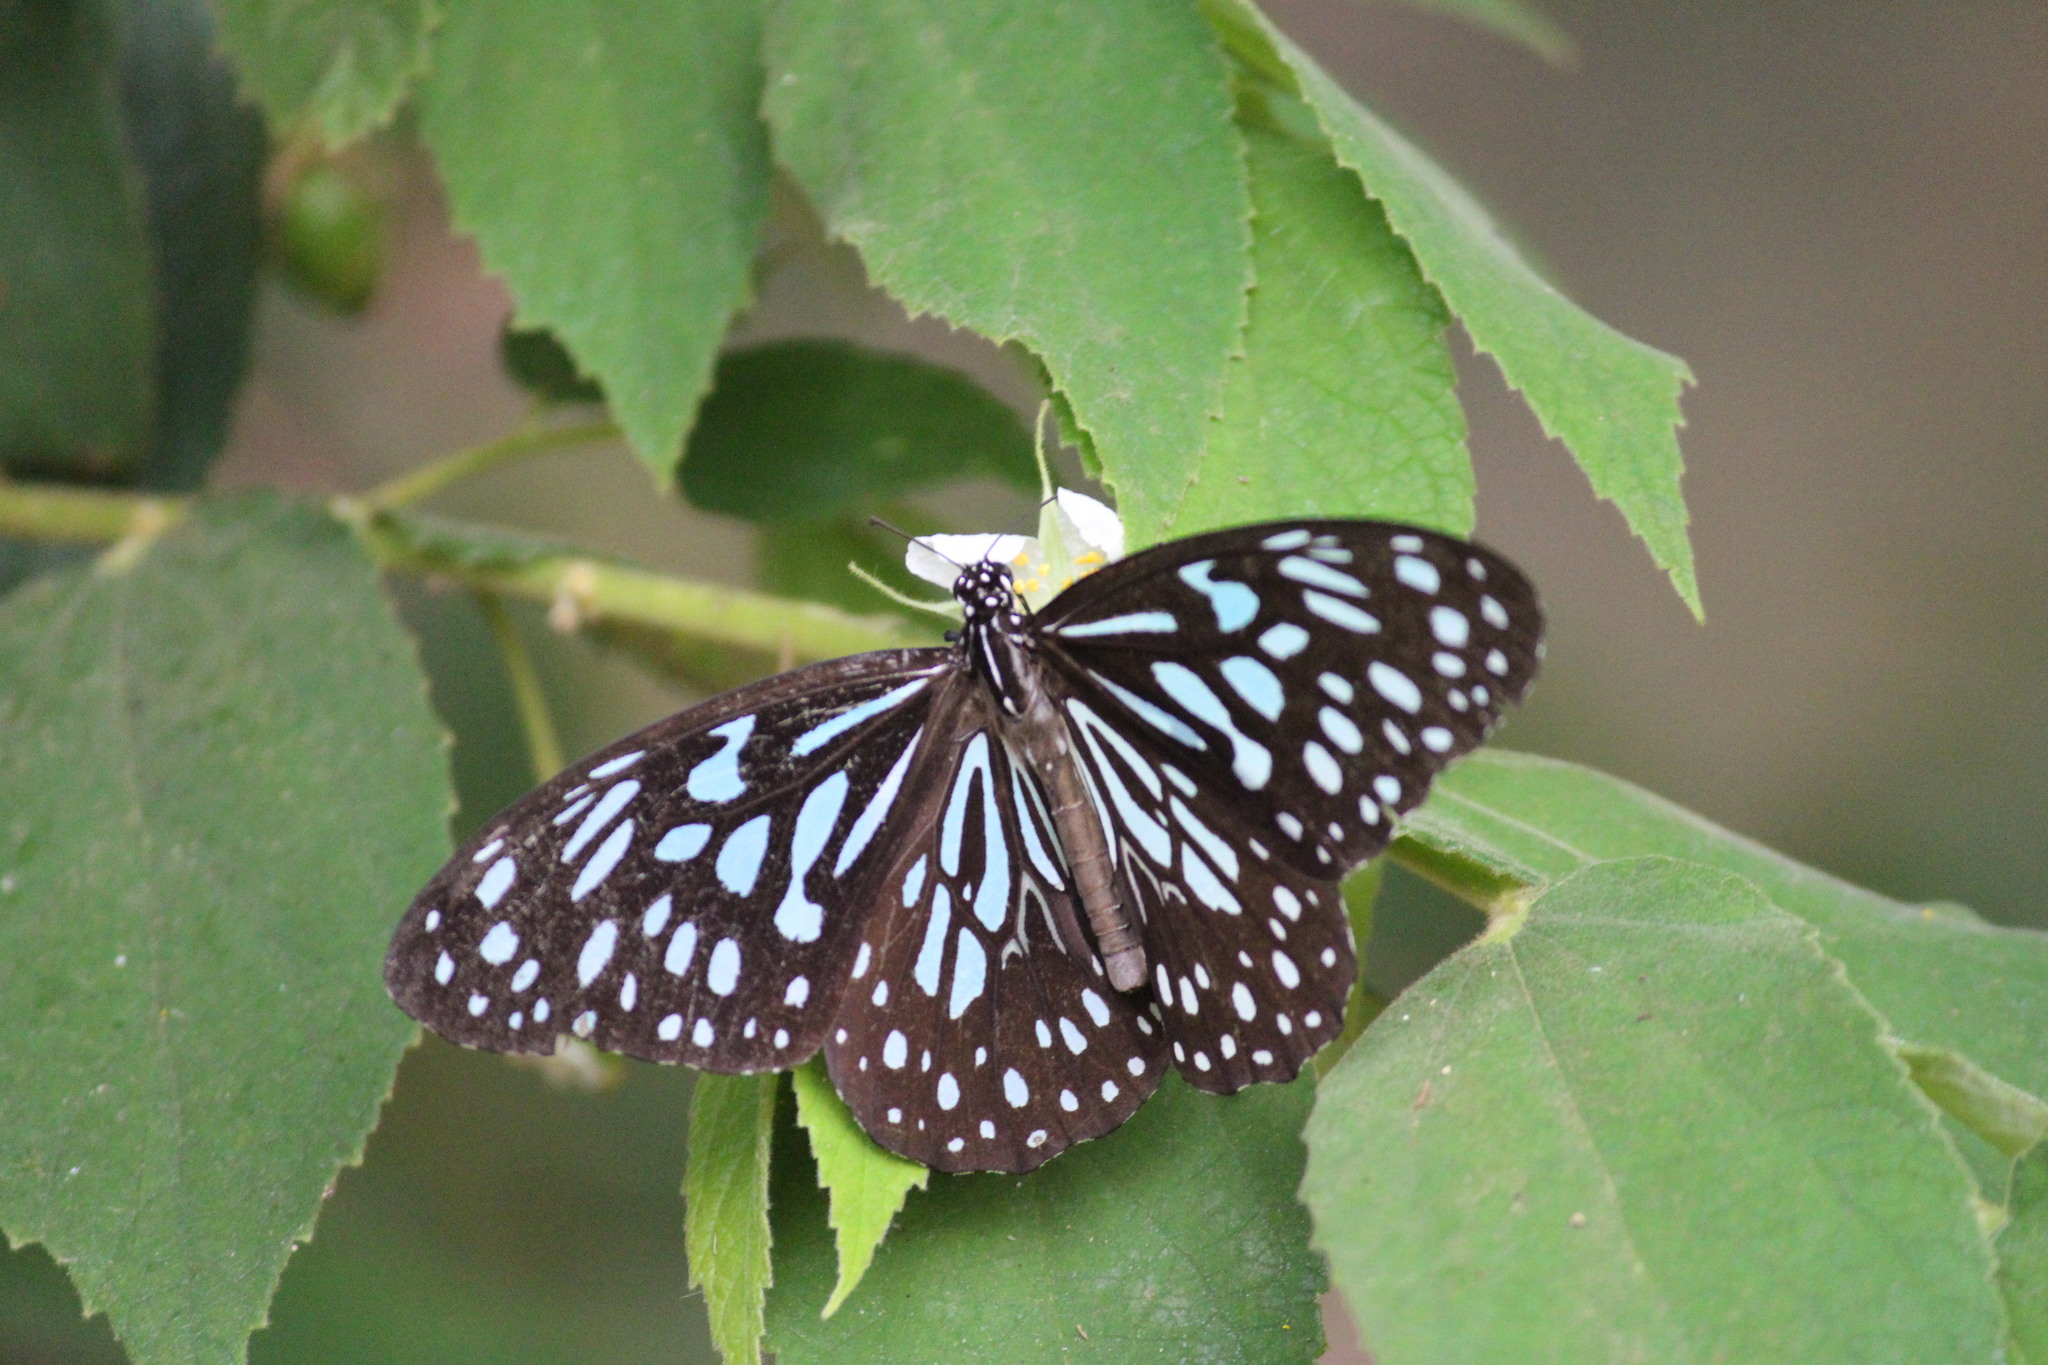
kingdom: Animalia
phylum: Arthropoda
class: Insecta
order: Lepidoptera
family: Nymphalidae
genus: Tirumala
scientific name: Tirumala septentrionis
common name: Dark blue tiger butterfly
